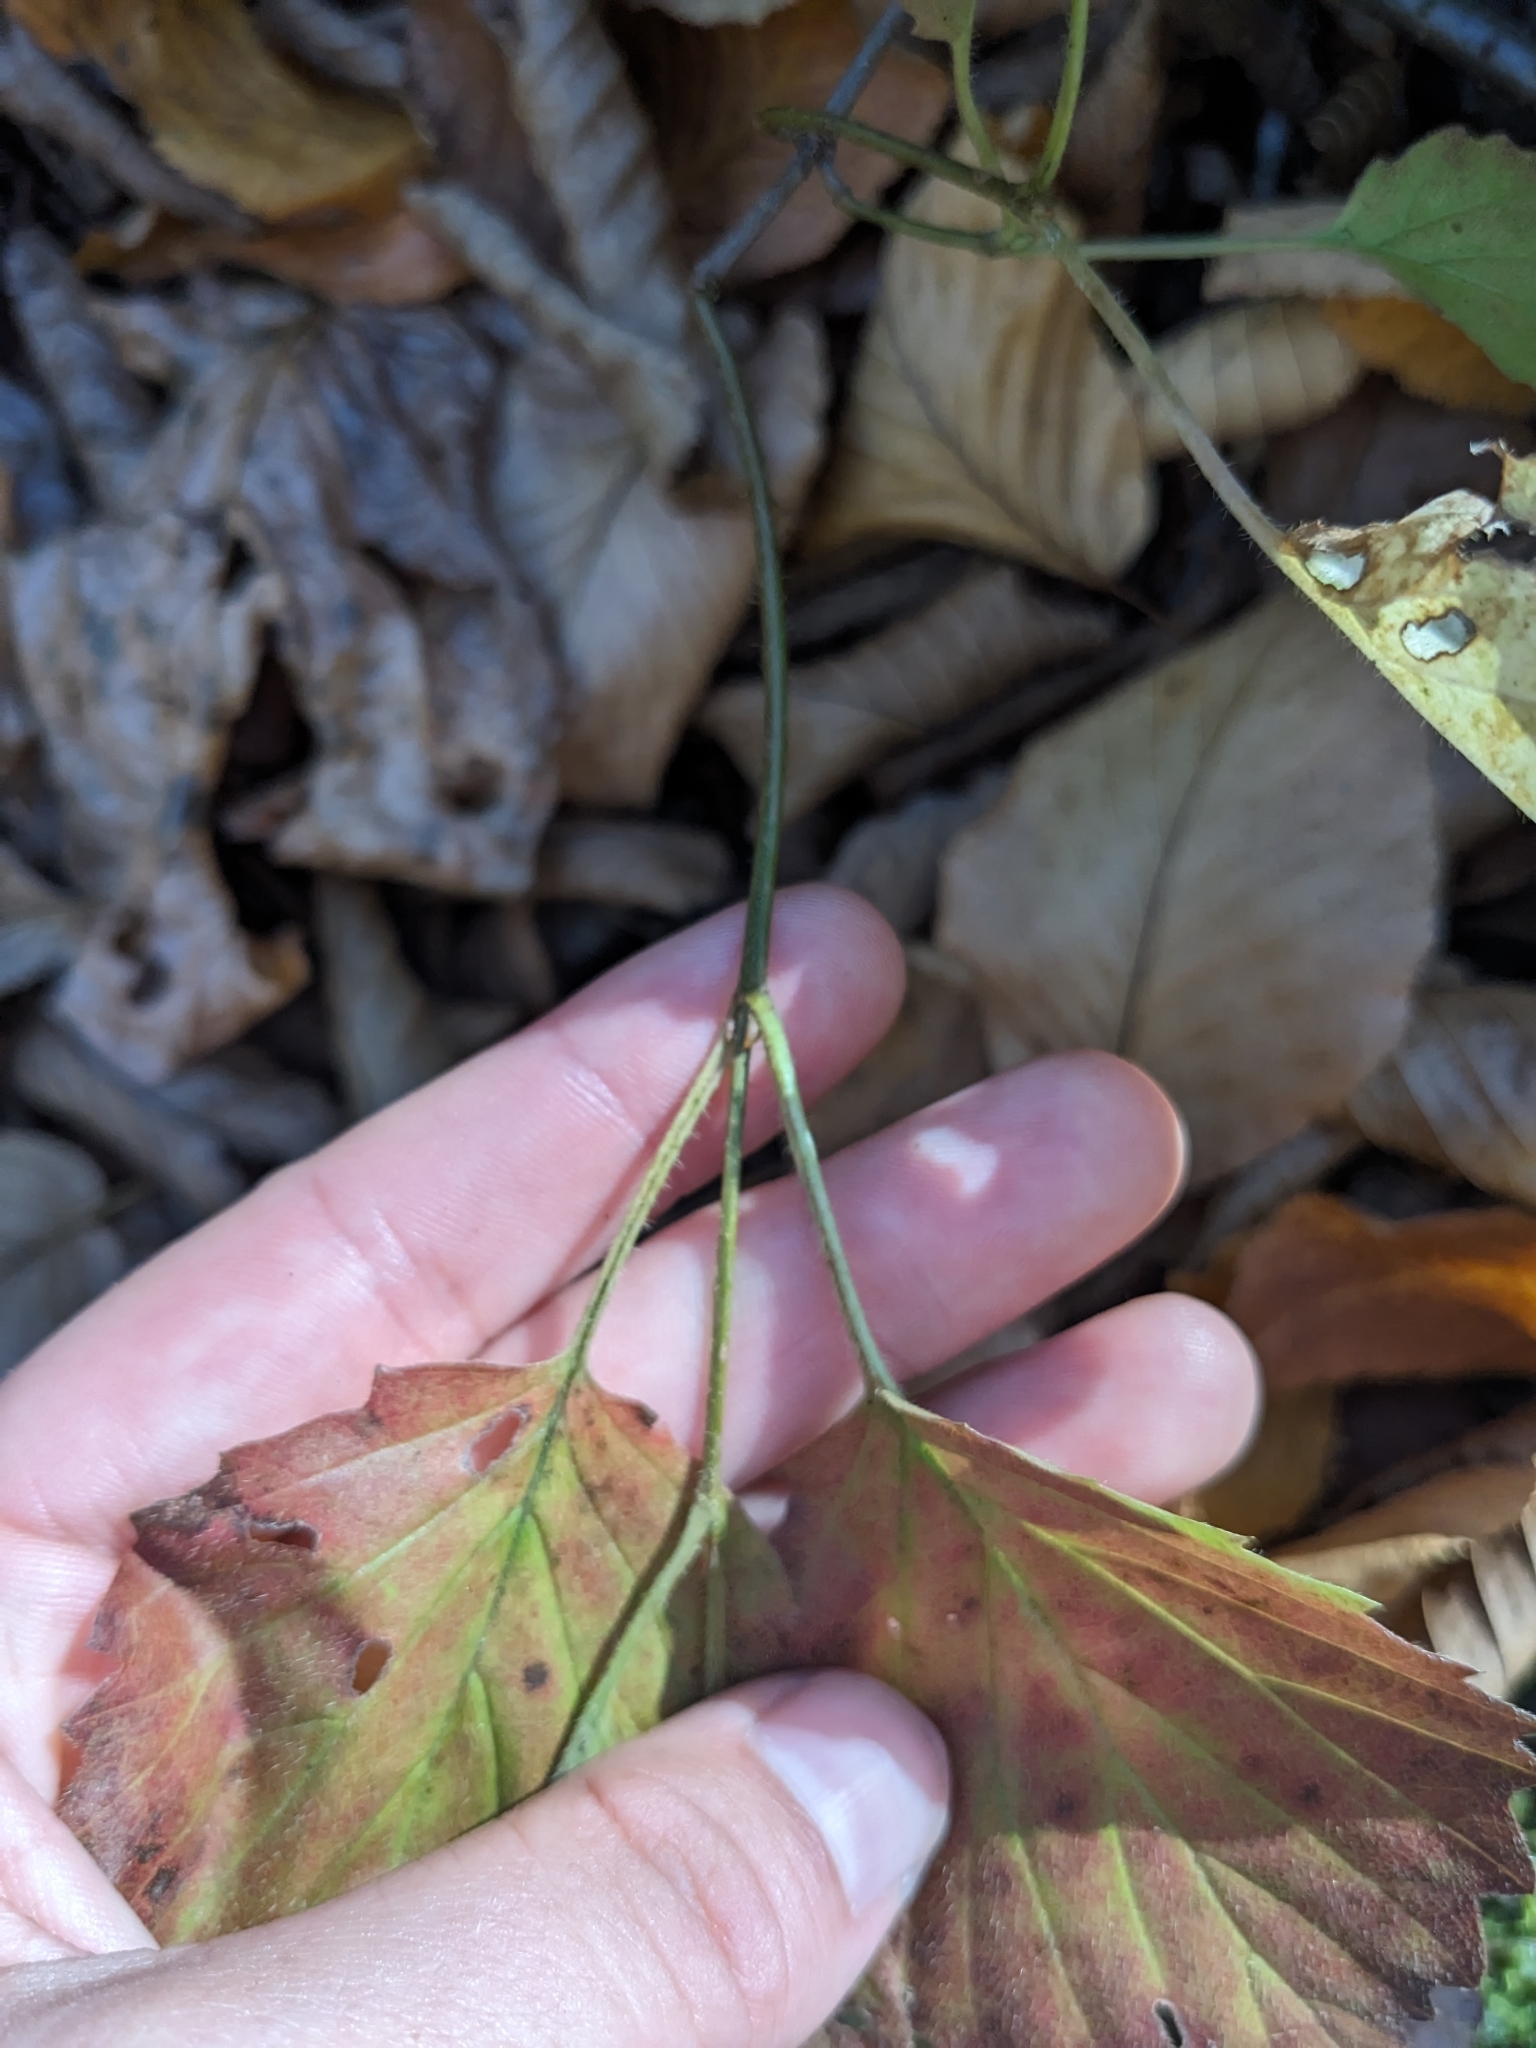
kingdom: Plantae
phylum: Tracheophyta
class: Magnoliopsida
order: Dipsacales
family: Viburnaceae
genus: Viburnum
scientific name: Viburnum dentatum
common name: Arrow-wood
